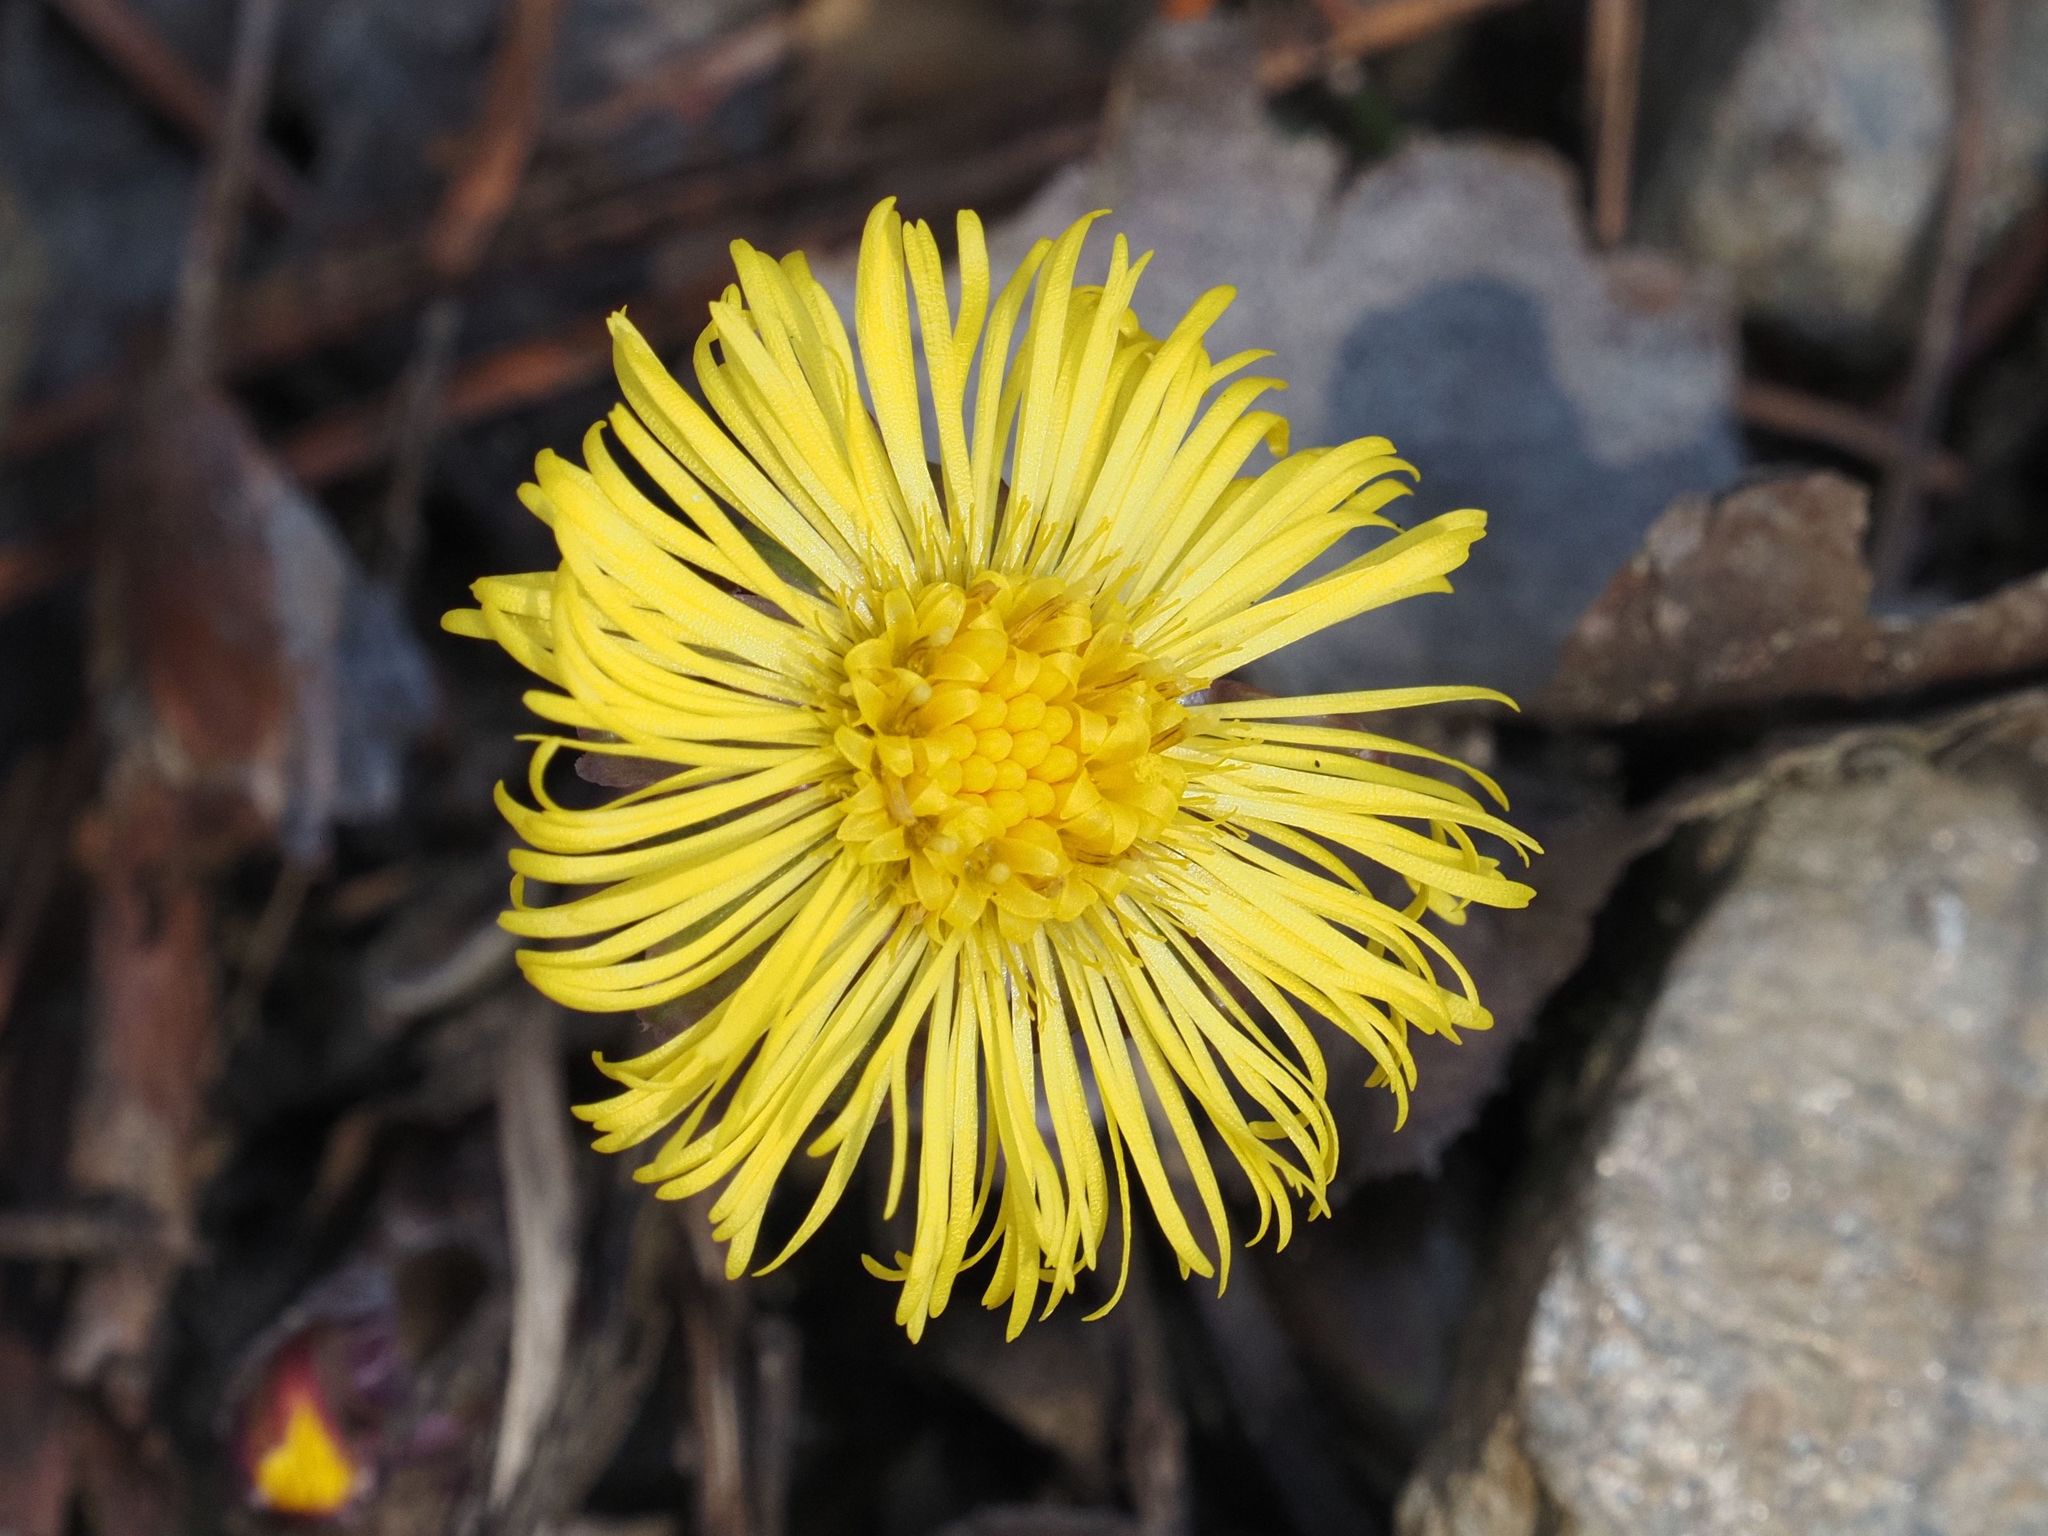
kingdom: Plantae
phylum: Tracheophyta
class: Magnoliopsida
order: Asterales
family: Asteraceae
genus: Tussilago
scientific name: Tussilago farfara
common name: Coltsfoot
